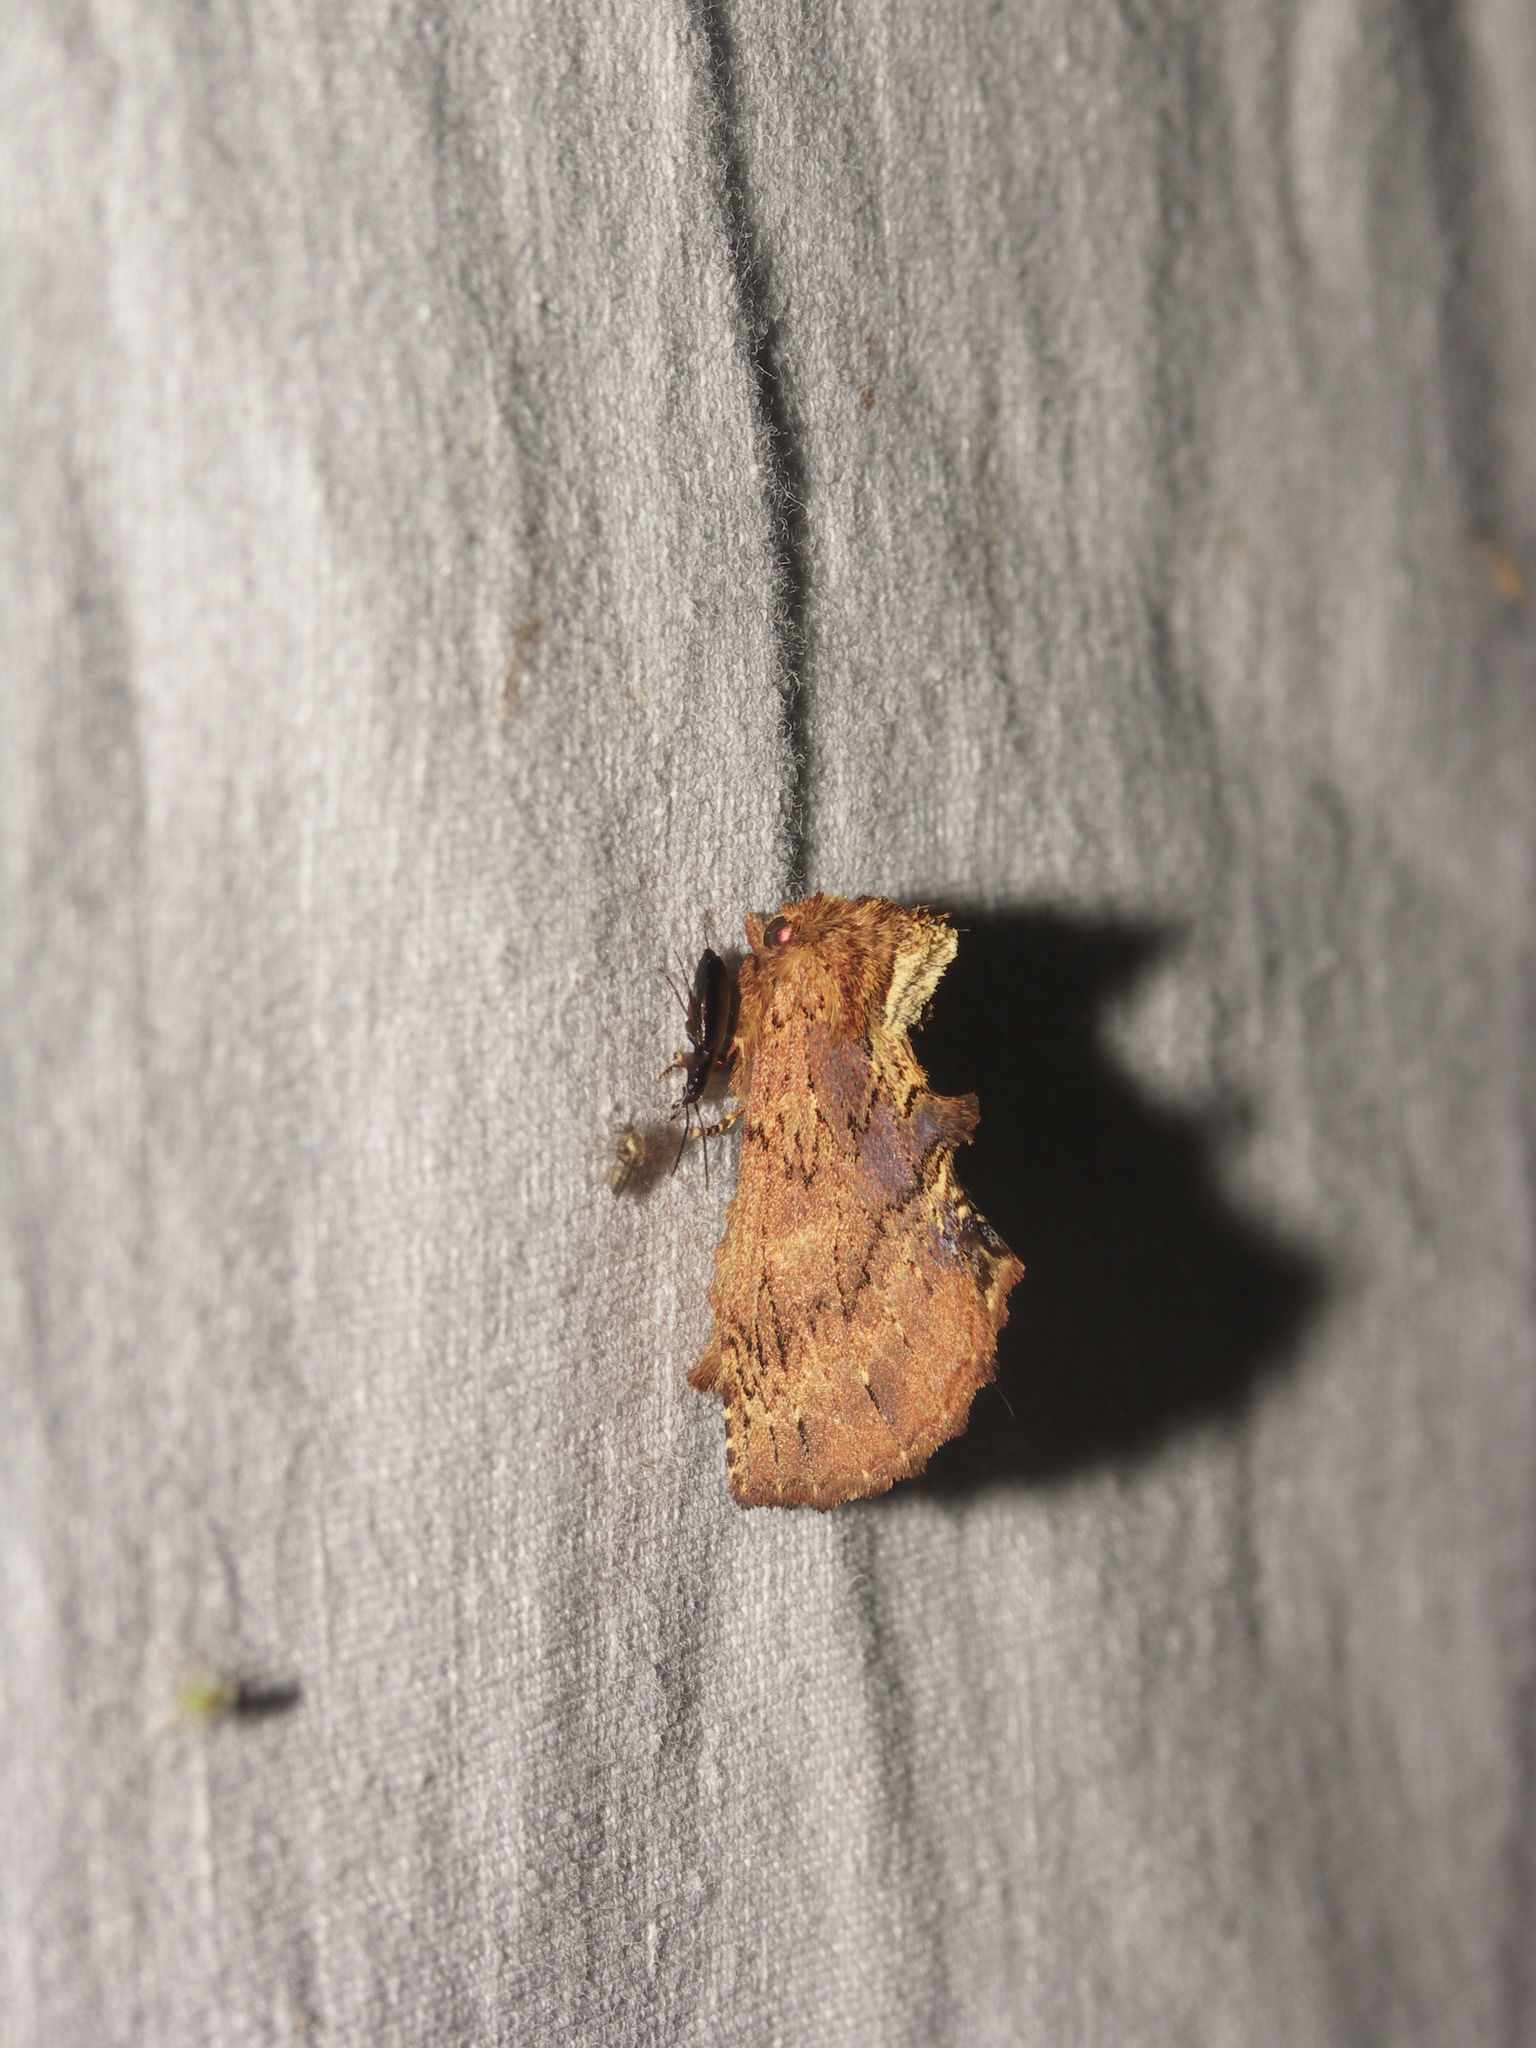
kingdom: Animalia
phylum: Arthropoda
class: Insecta
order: Lepidoptera
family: Notodontidae
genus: Ptilodon
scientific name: Ptilodon capucina
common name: Coxcomb prominent
